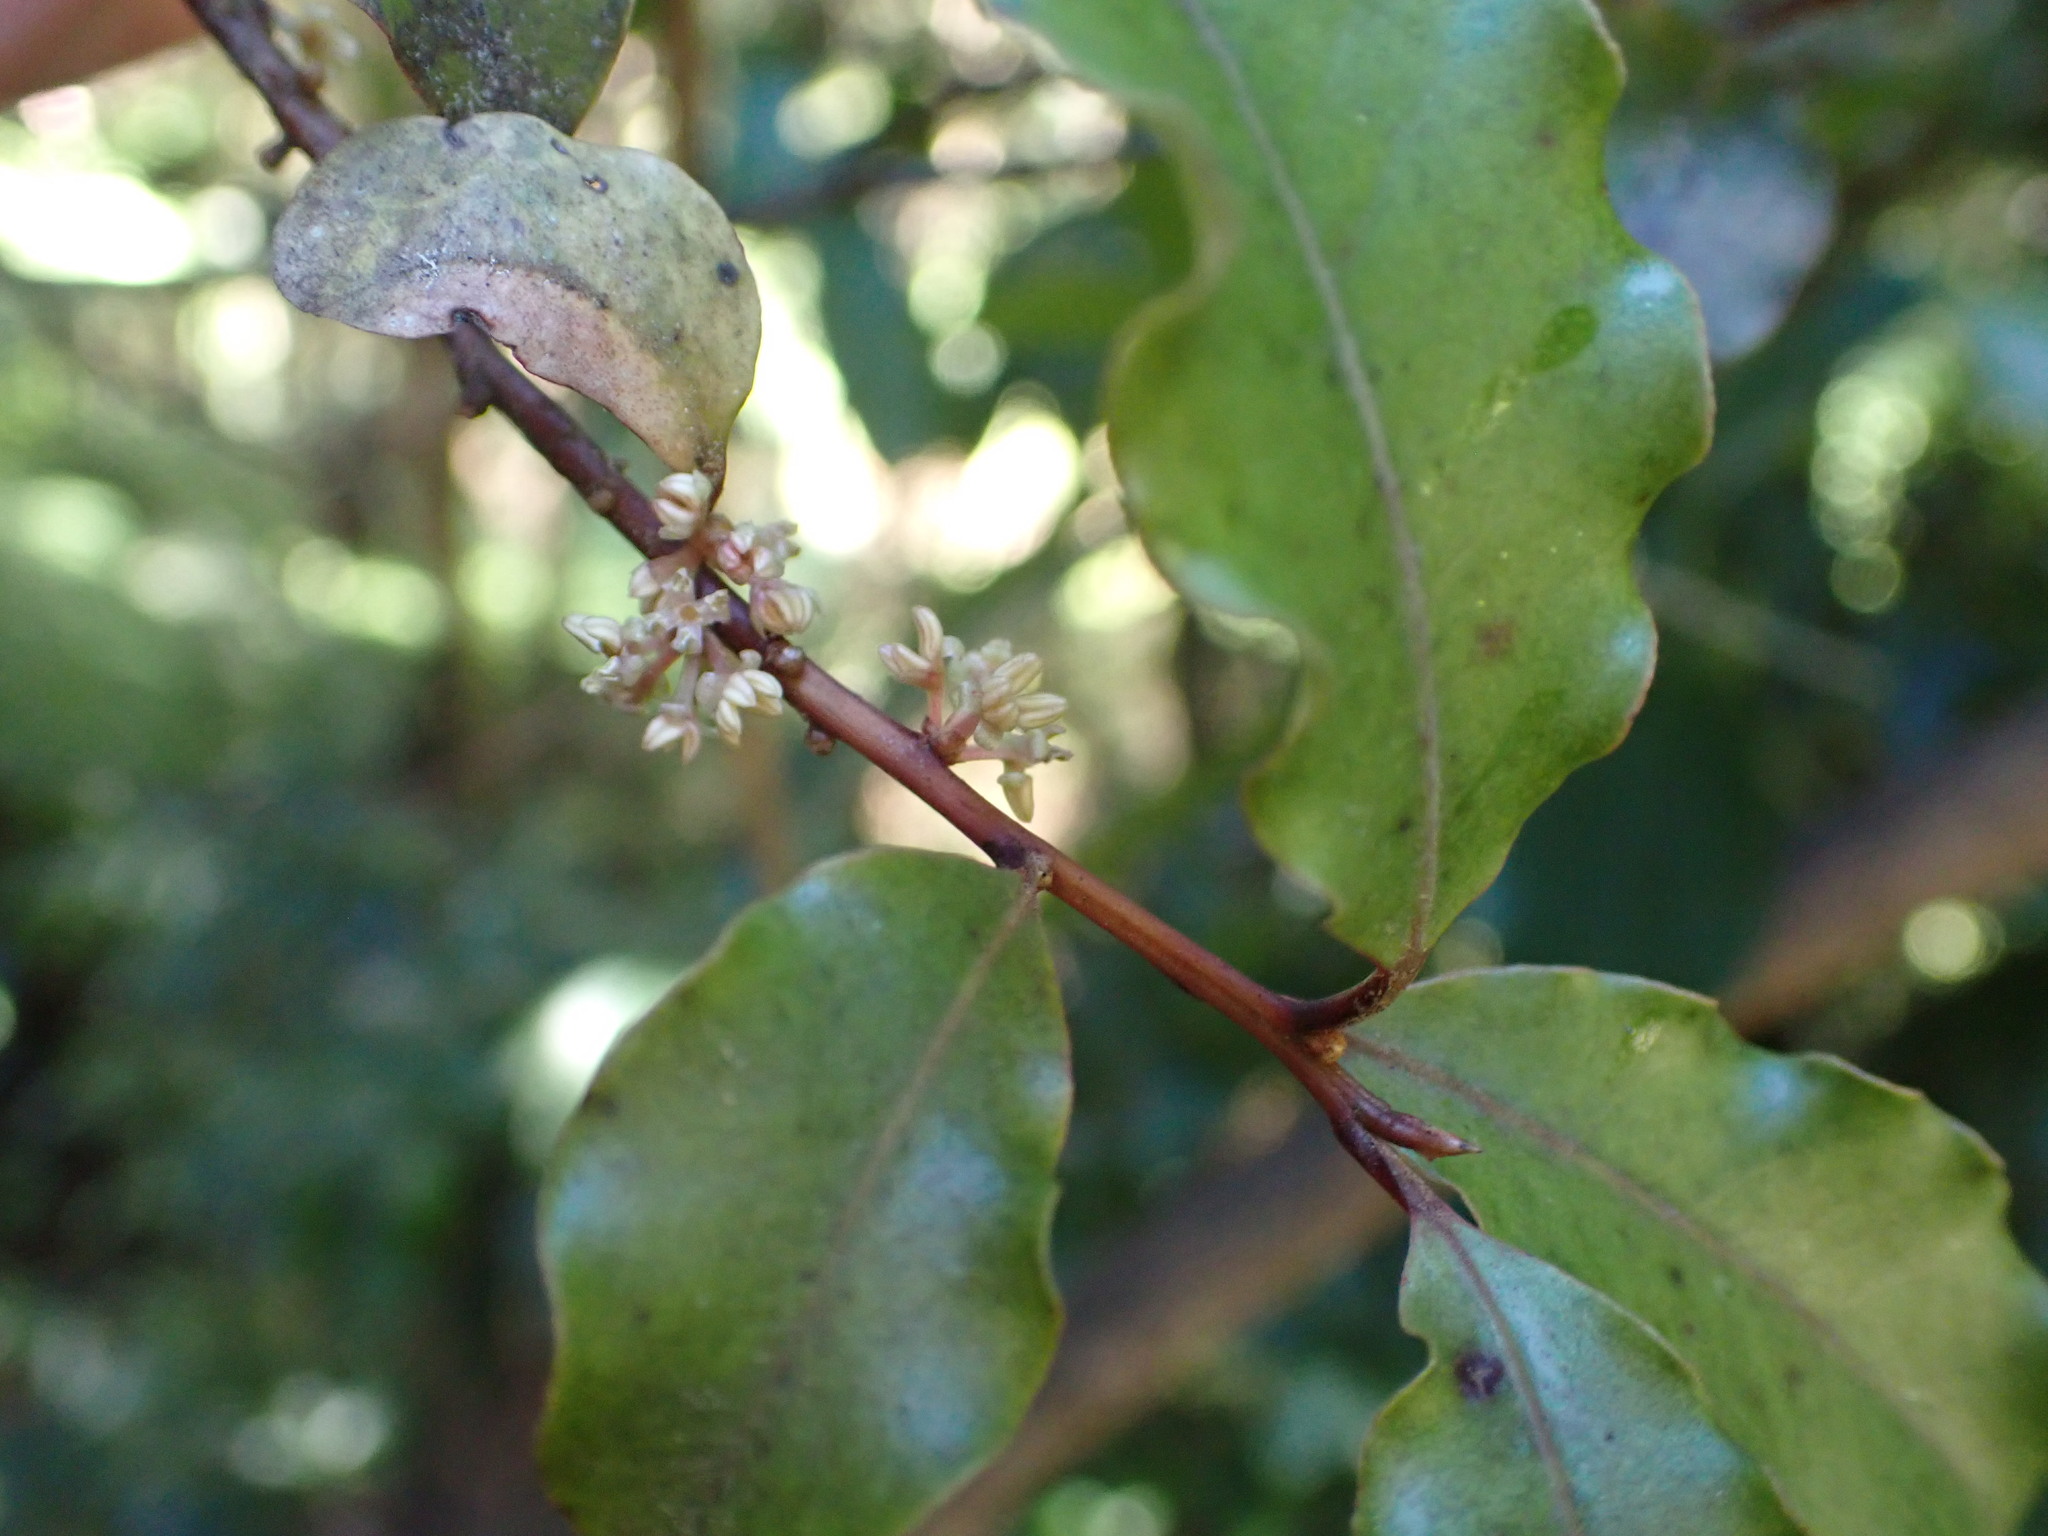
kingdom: Plantae
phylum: Tracheophyta
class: Magnoliopsida
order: Ericales
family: Primulaceae
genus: Myrsine
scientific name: Myrsine australis
